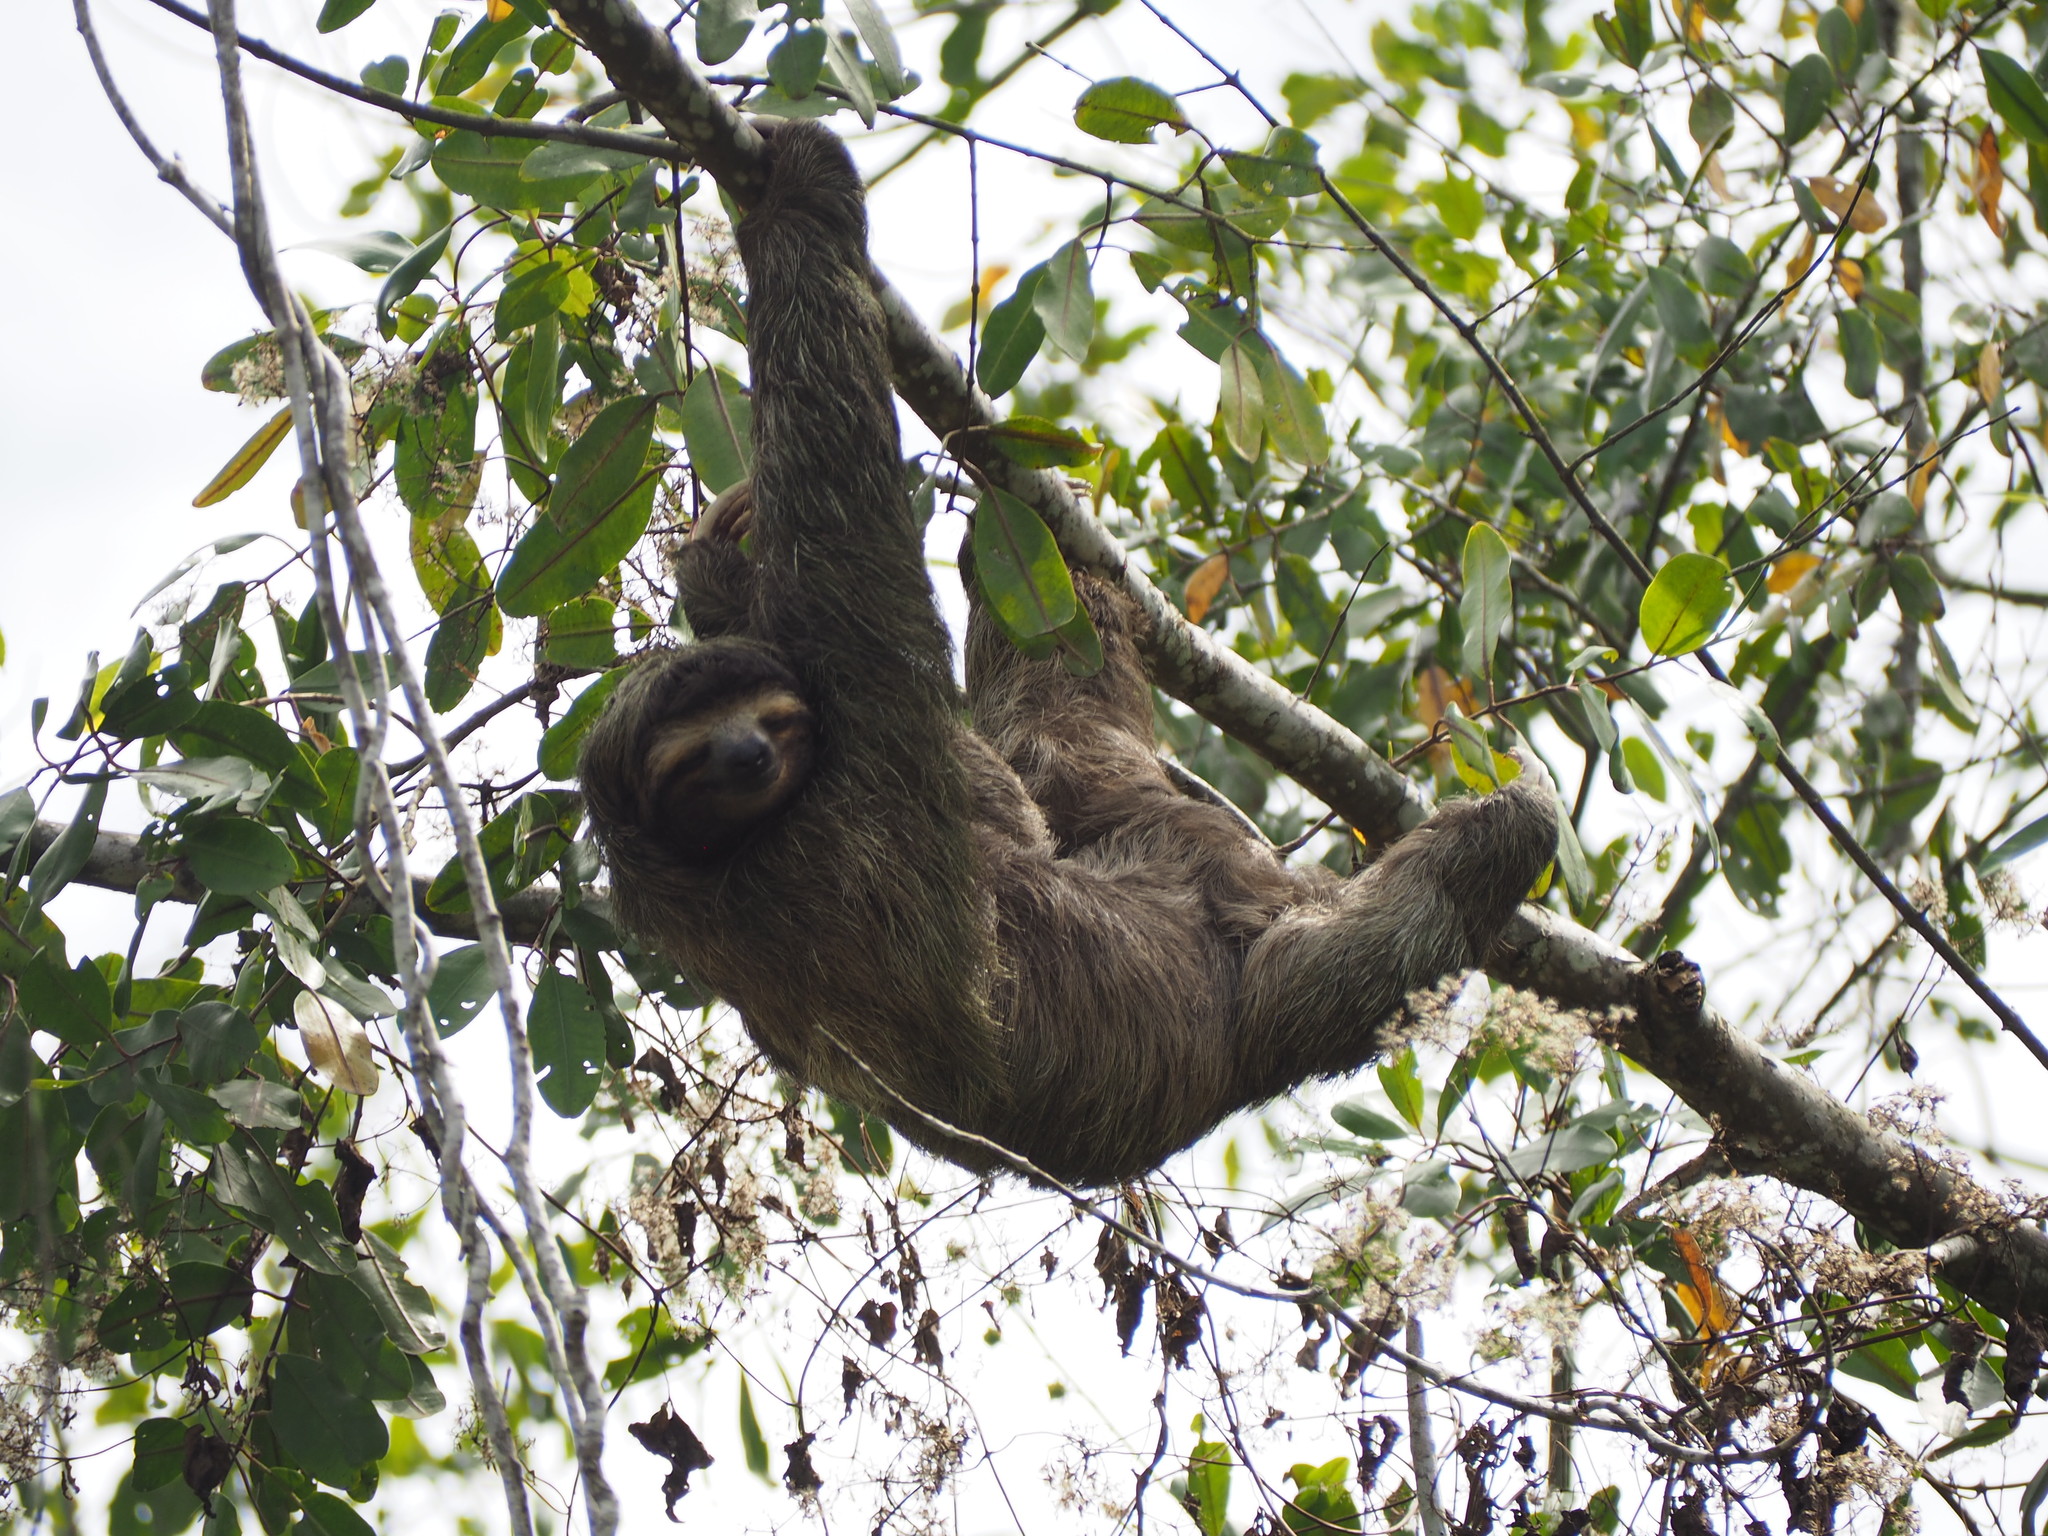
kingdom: Animalia
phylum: Chordata
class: Mammalia
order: Pilosa
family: Bradypodidae
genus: Bradypus
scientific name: Bradypus variegatus
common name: Brown-throated three-toed sloth
